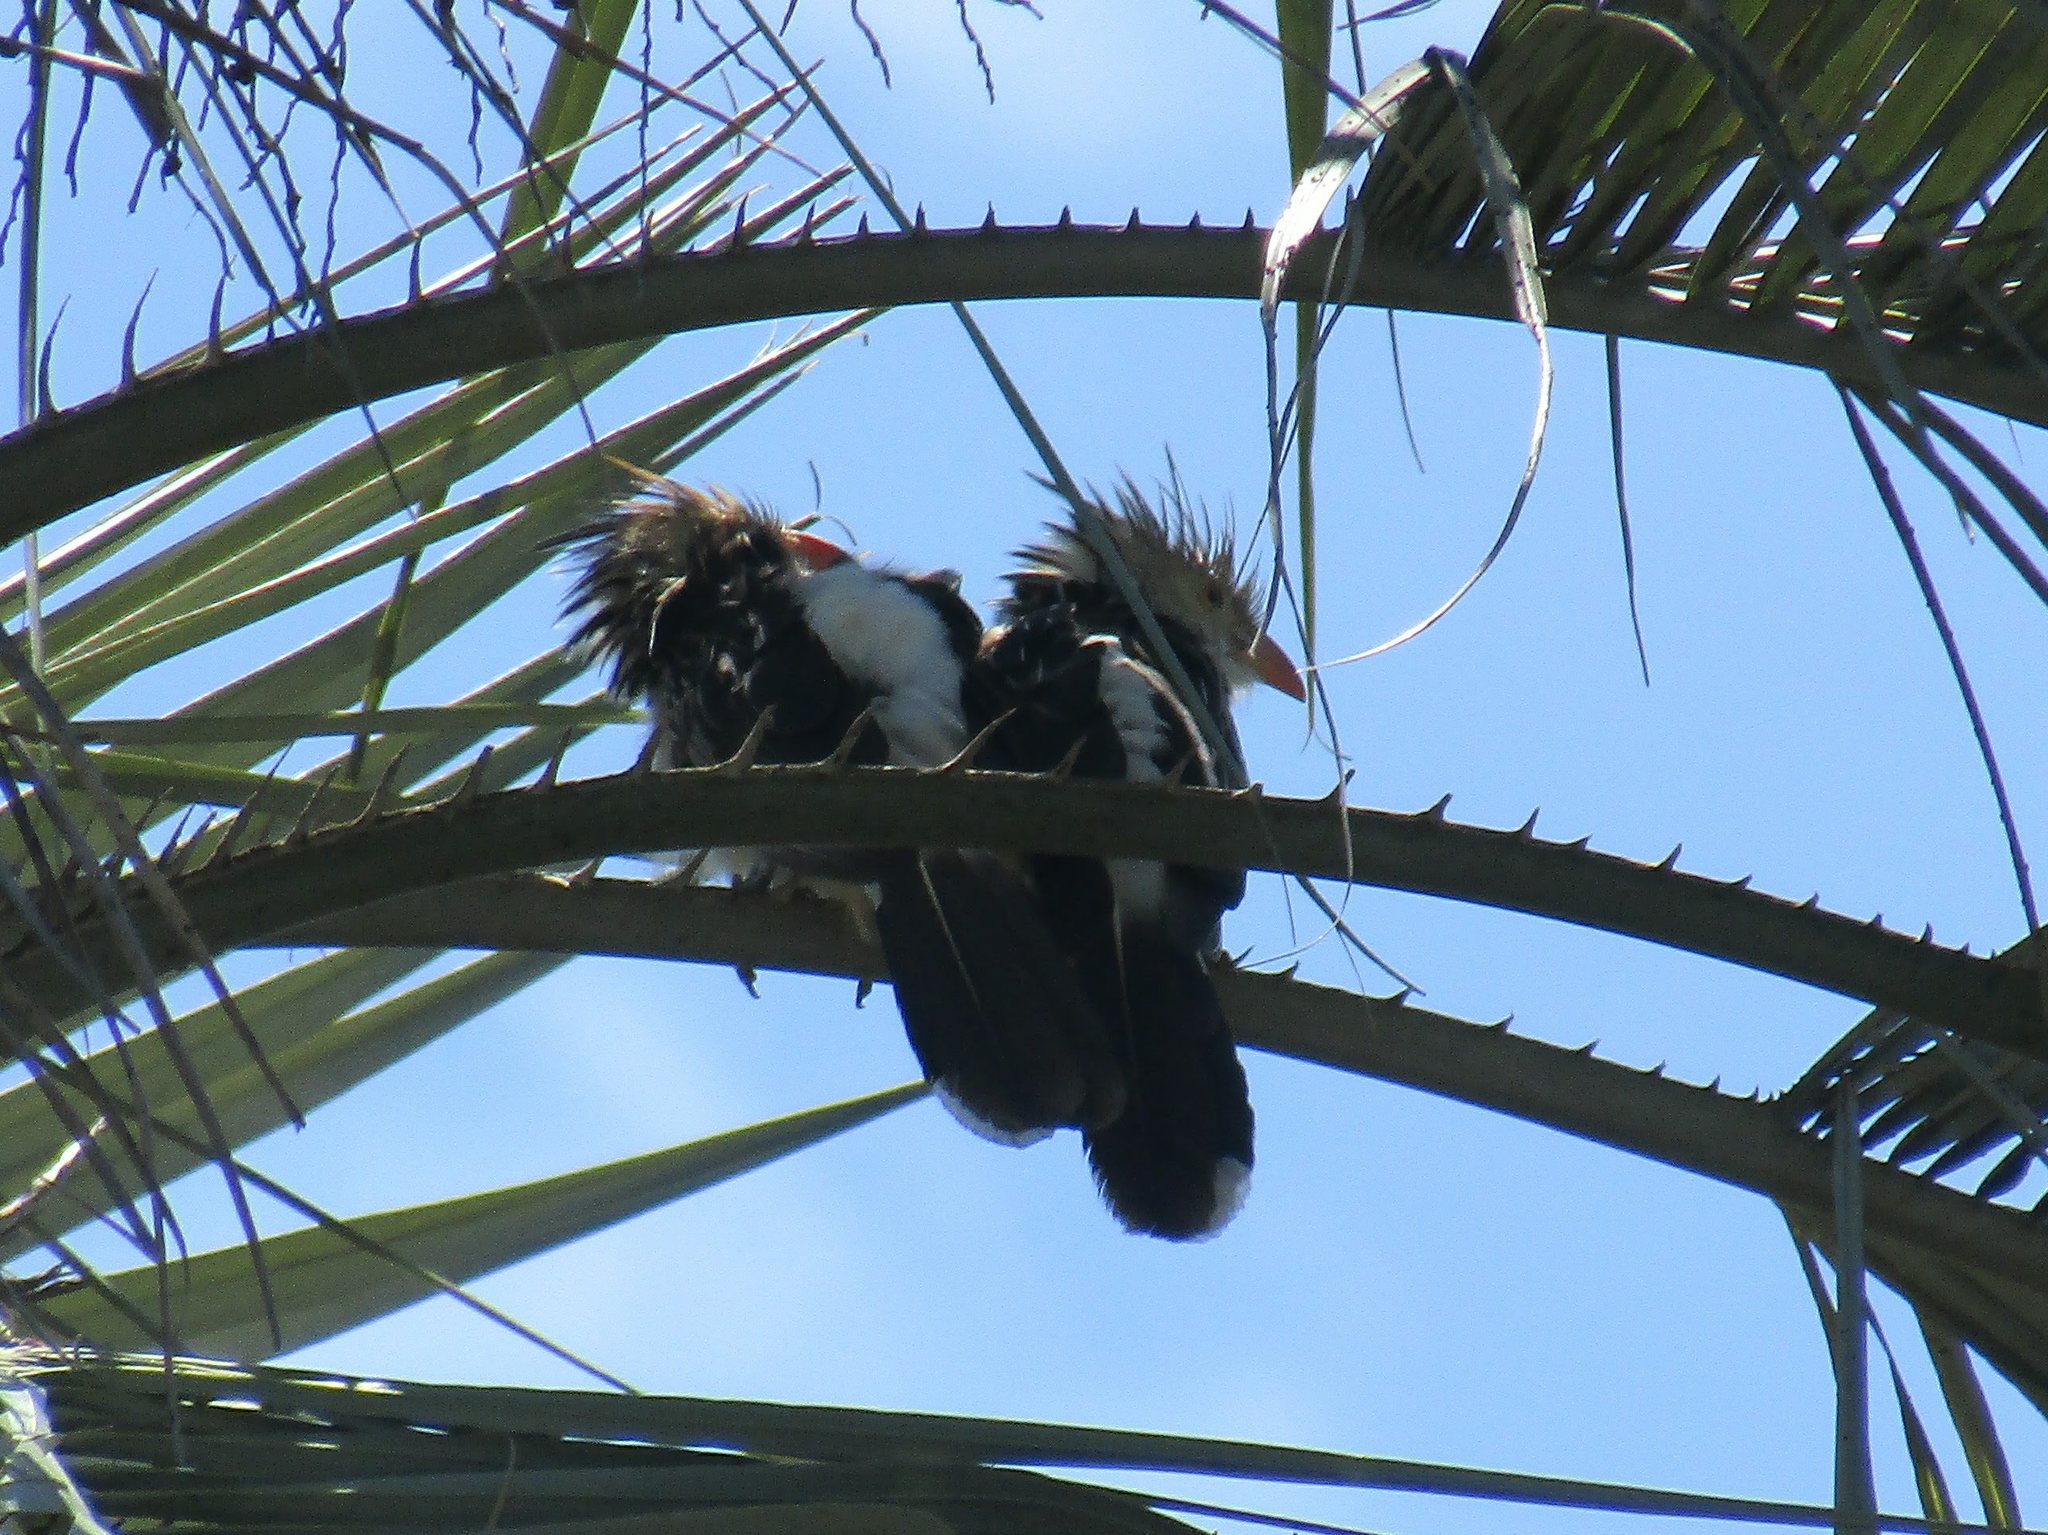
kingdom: Animalia
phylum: Chordata
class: Aves
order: Cuculiformes
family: Cuculidae
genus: Guira
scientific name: Guira guira
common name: Guira cuckoo
